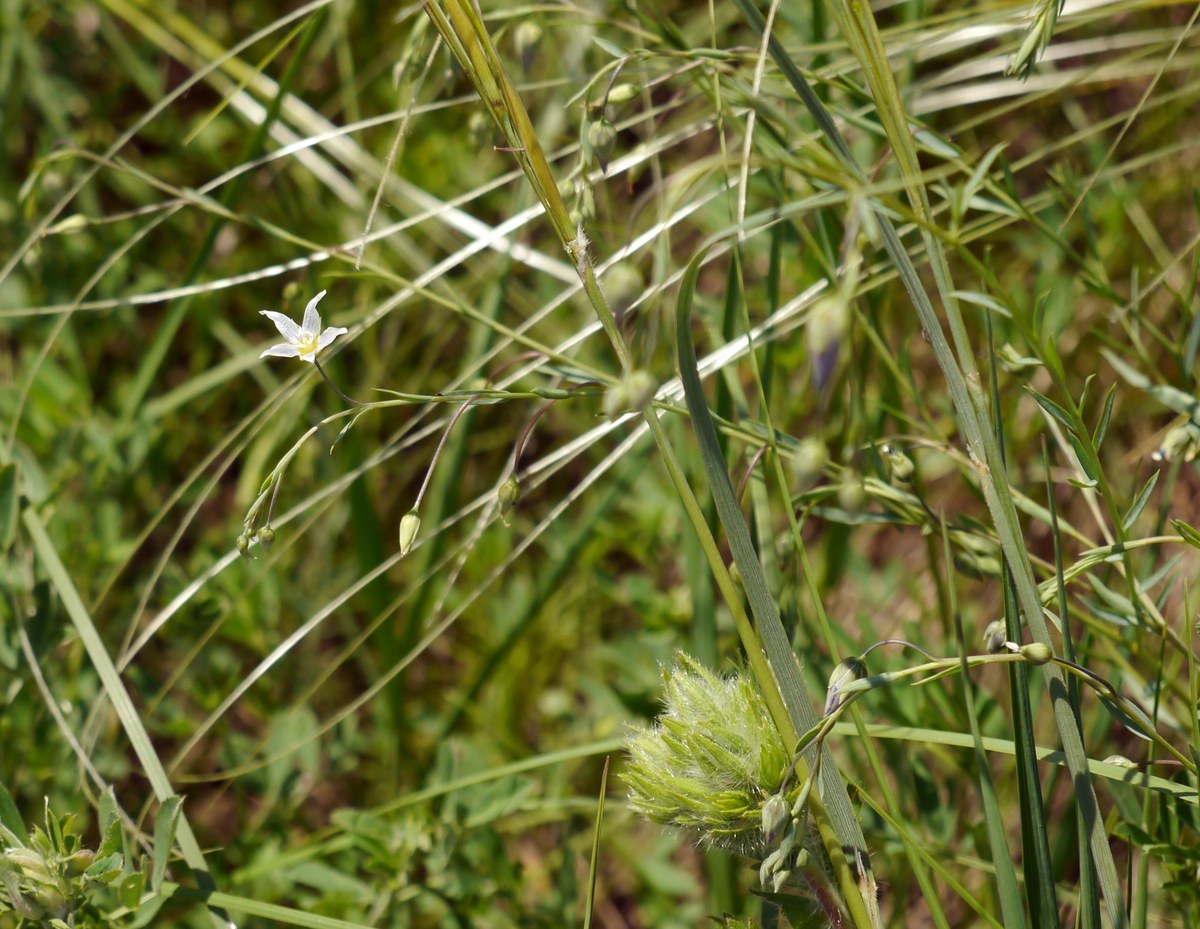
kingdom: Plantae
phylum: Tracheophyta
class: Magnoliopsida
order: Malpighiales
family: Linaceae
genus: Linum
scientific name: Linum tenuifolium
